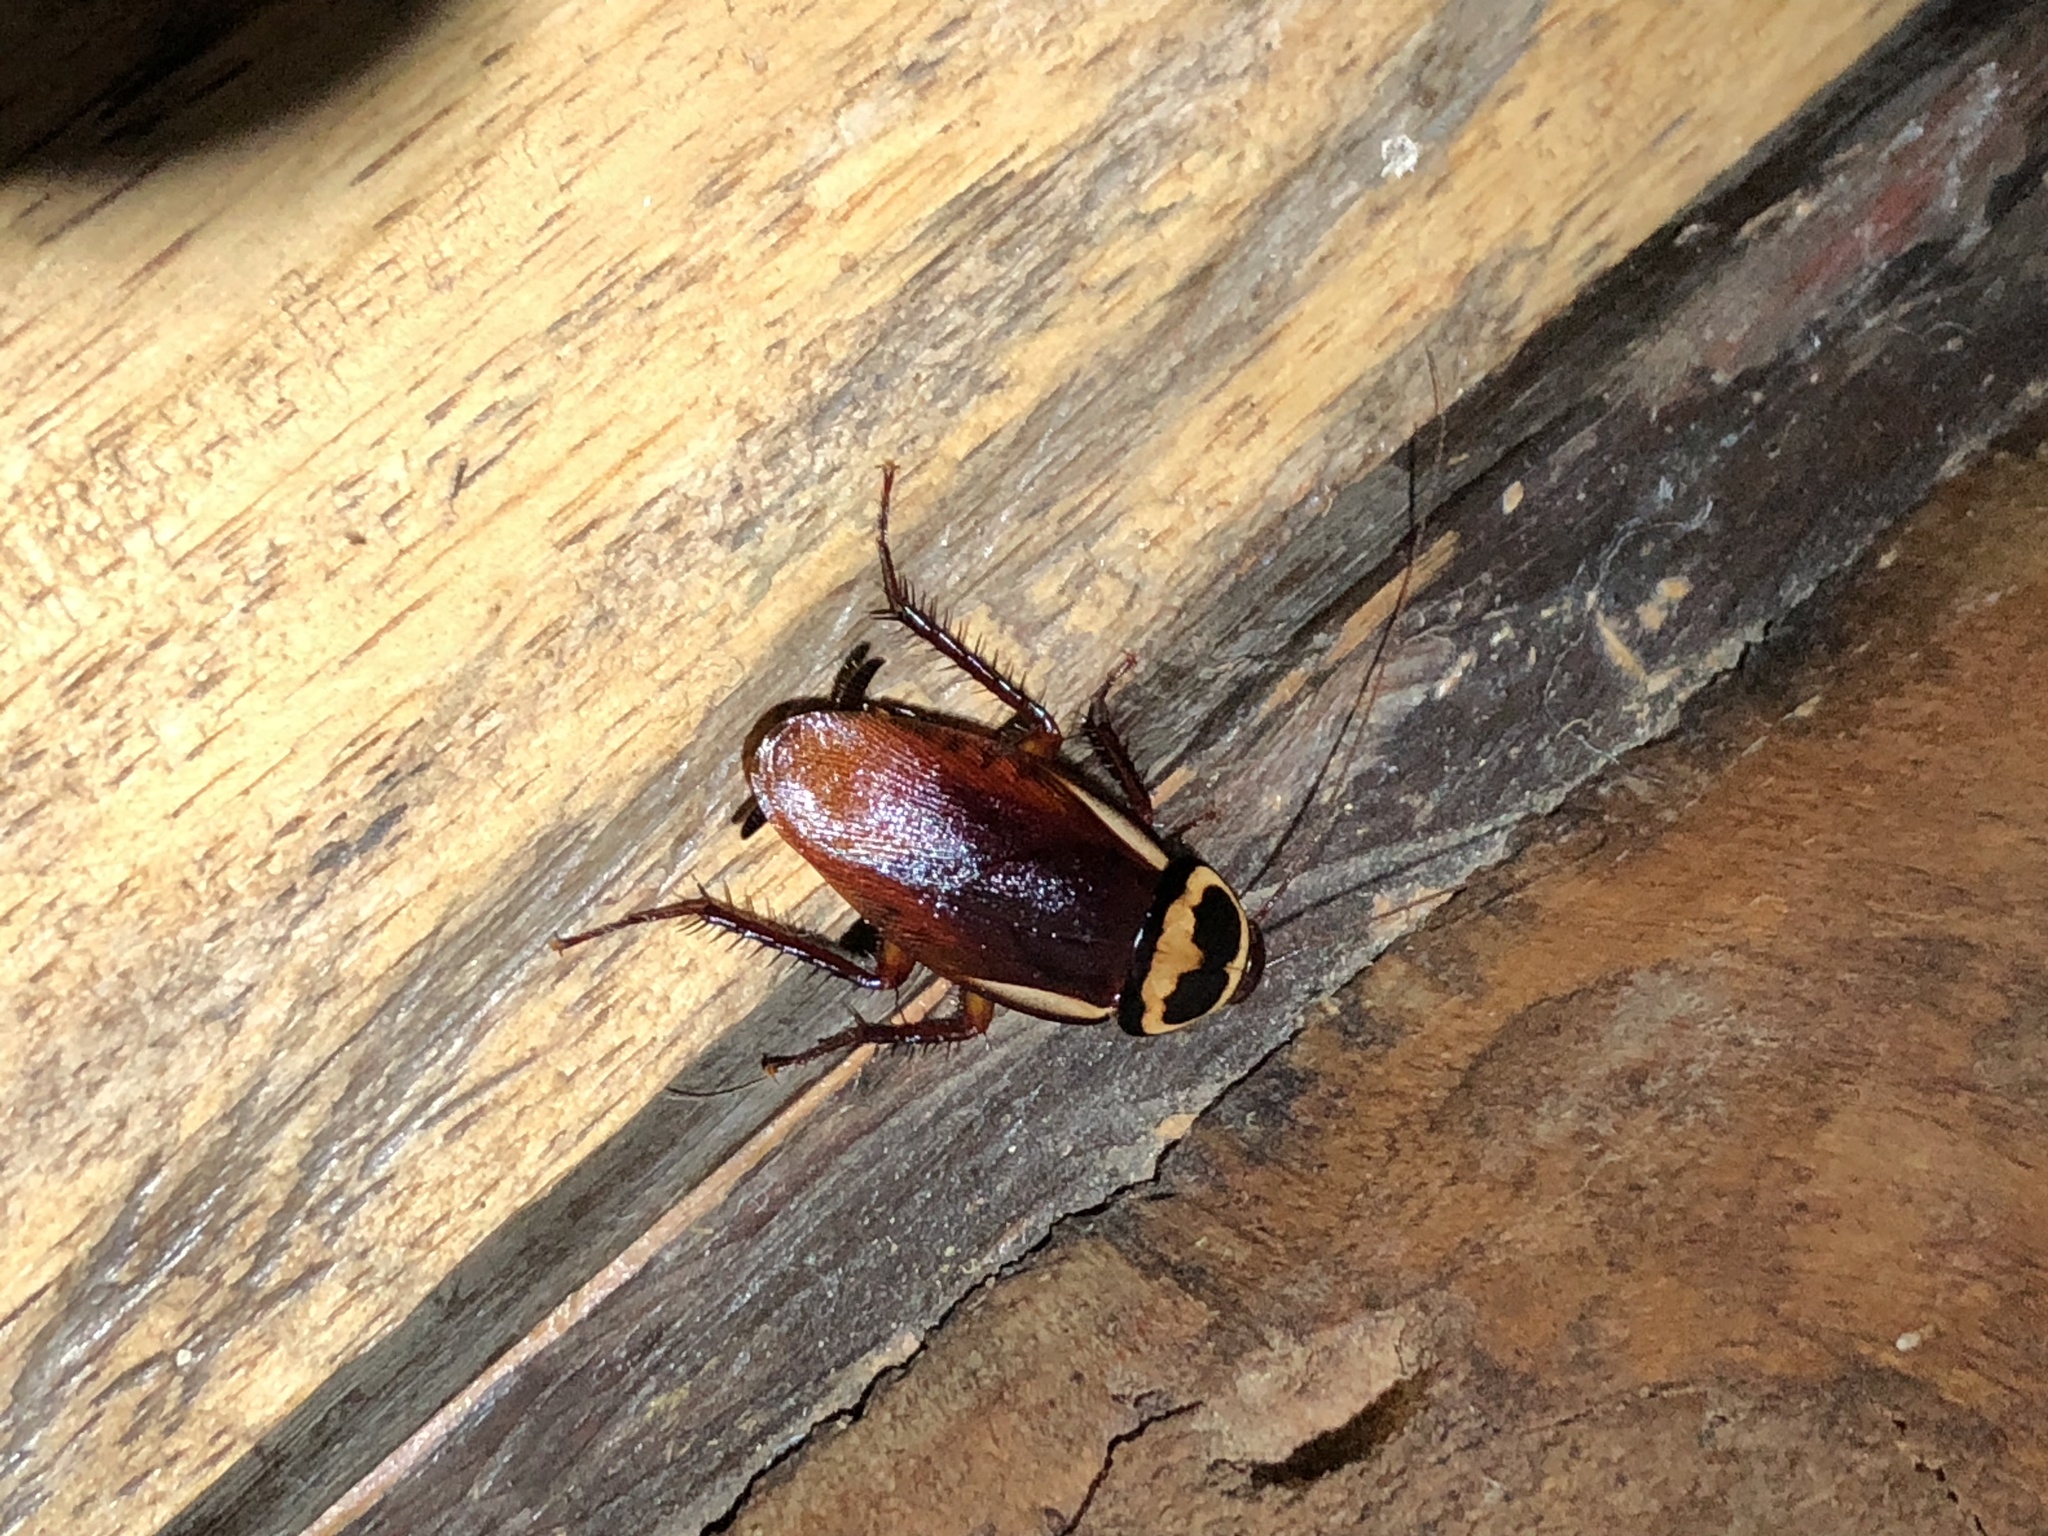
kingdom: Animalia
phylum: Arthropoda
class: Insecta
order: Blattodea
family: Blattidae
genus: Periplaneta
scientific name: Periplaneta australasiae
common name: Australian cockroach
